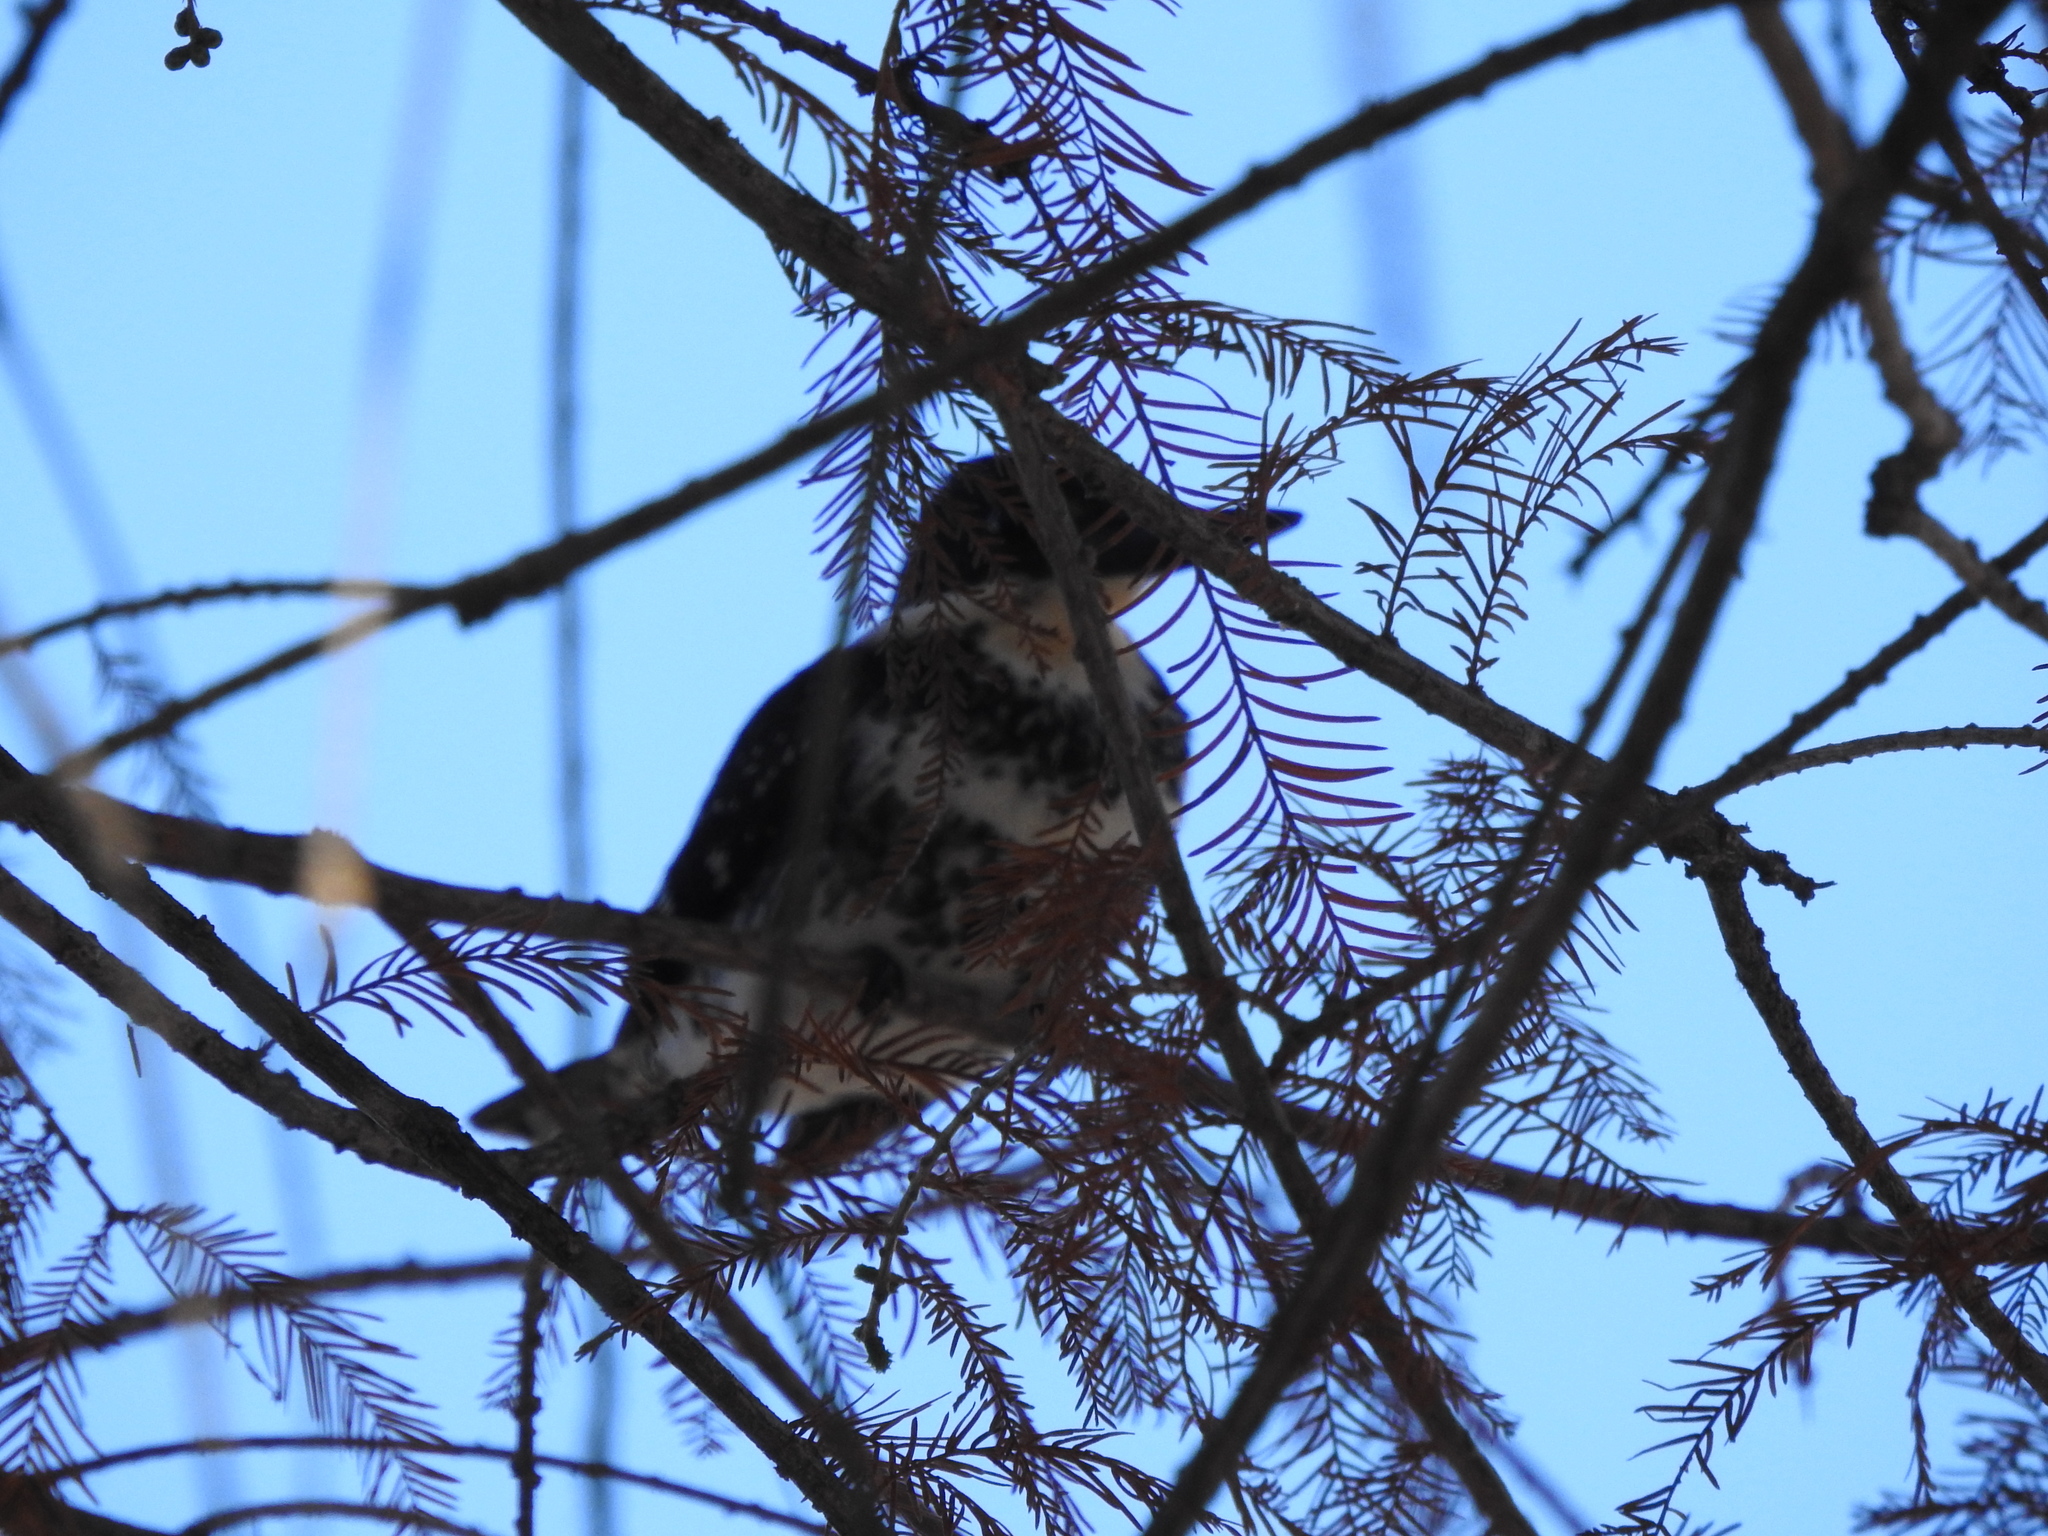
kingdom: Animalia
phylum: Chordata
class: Aves
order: Coraciiformes
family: Alcedinidae
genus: Chloroceryle
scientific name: Chloroceryle americana
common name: Green kingfisher
